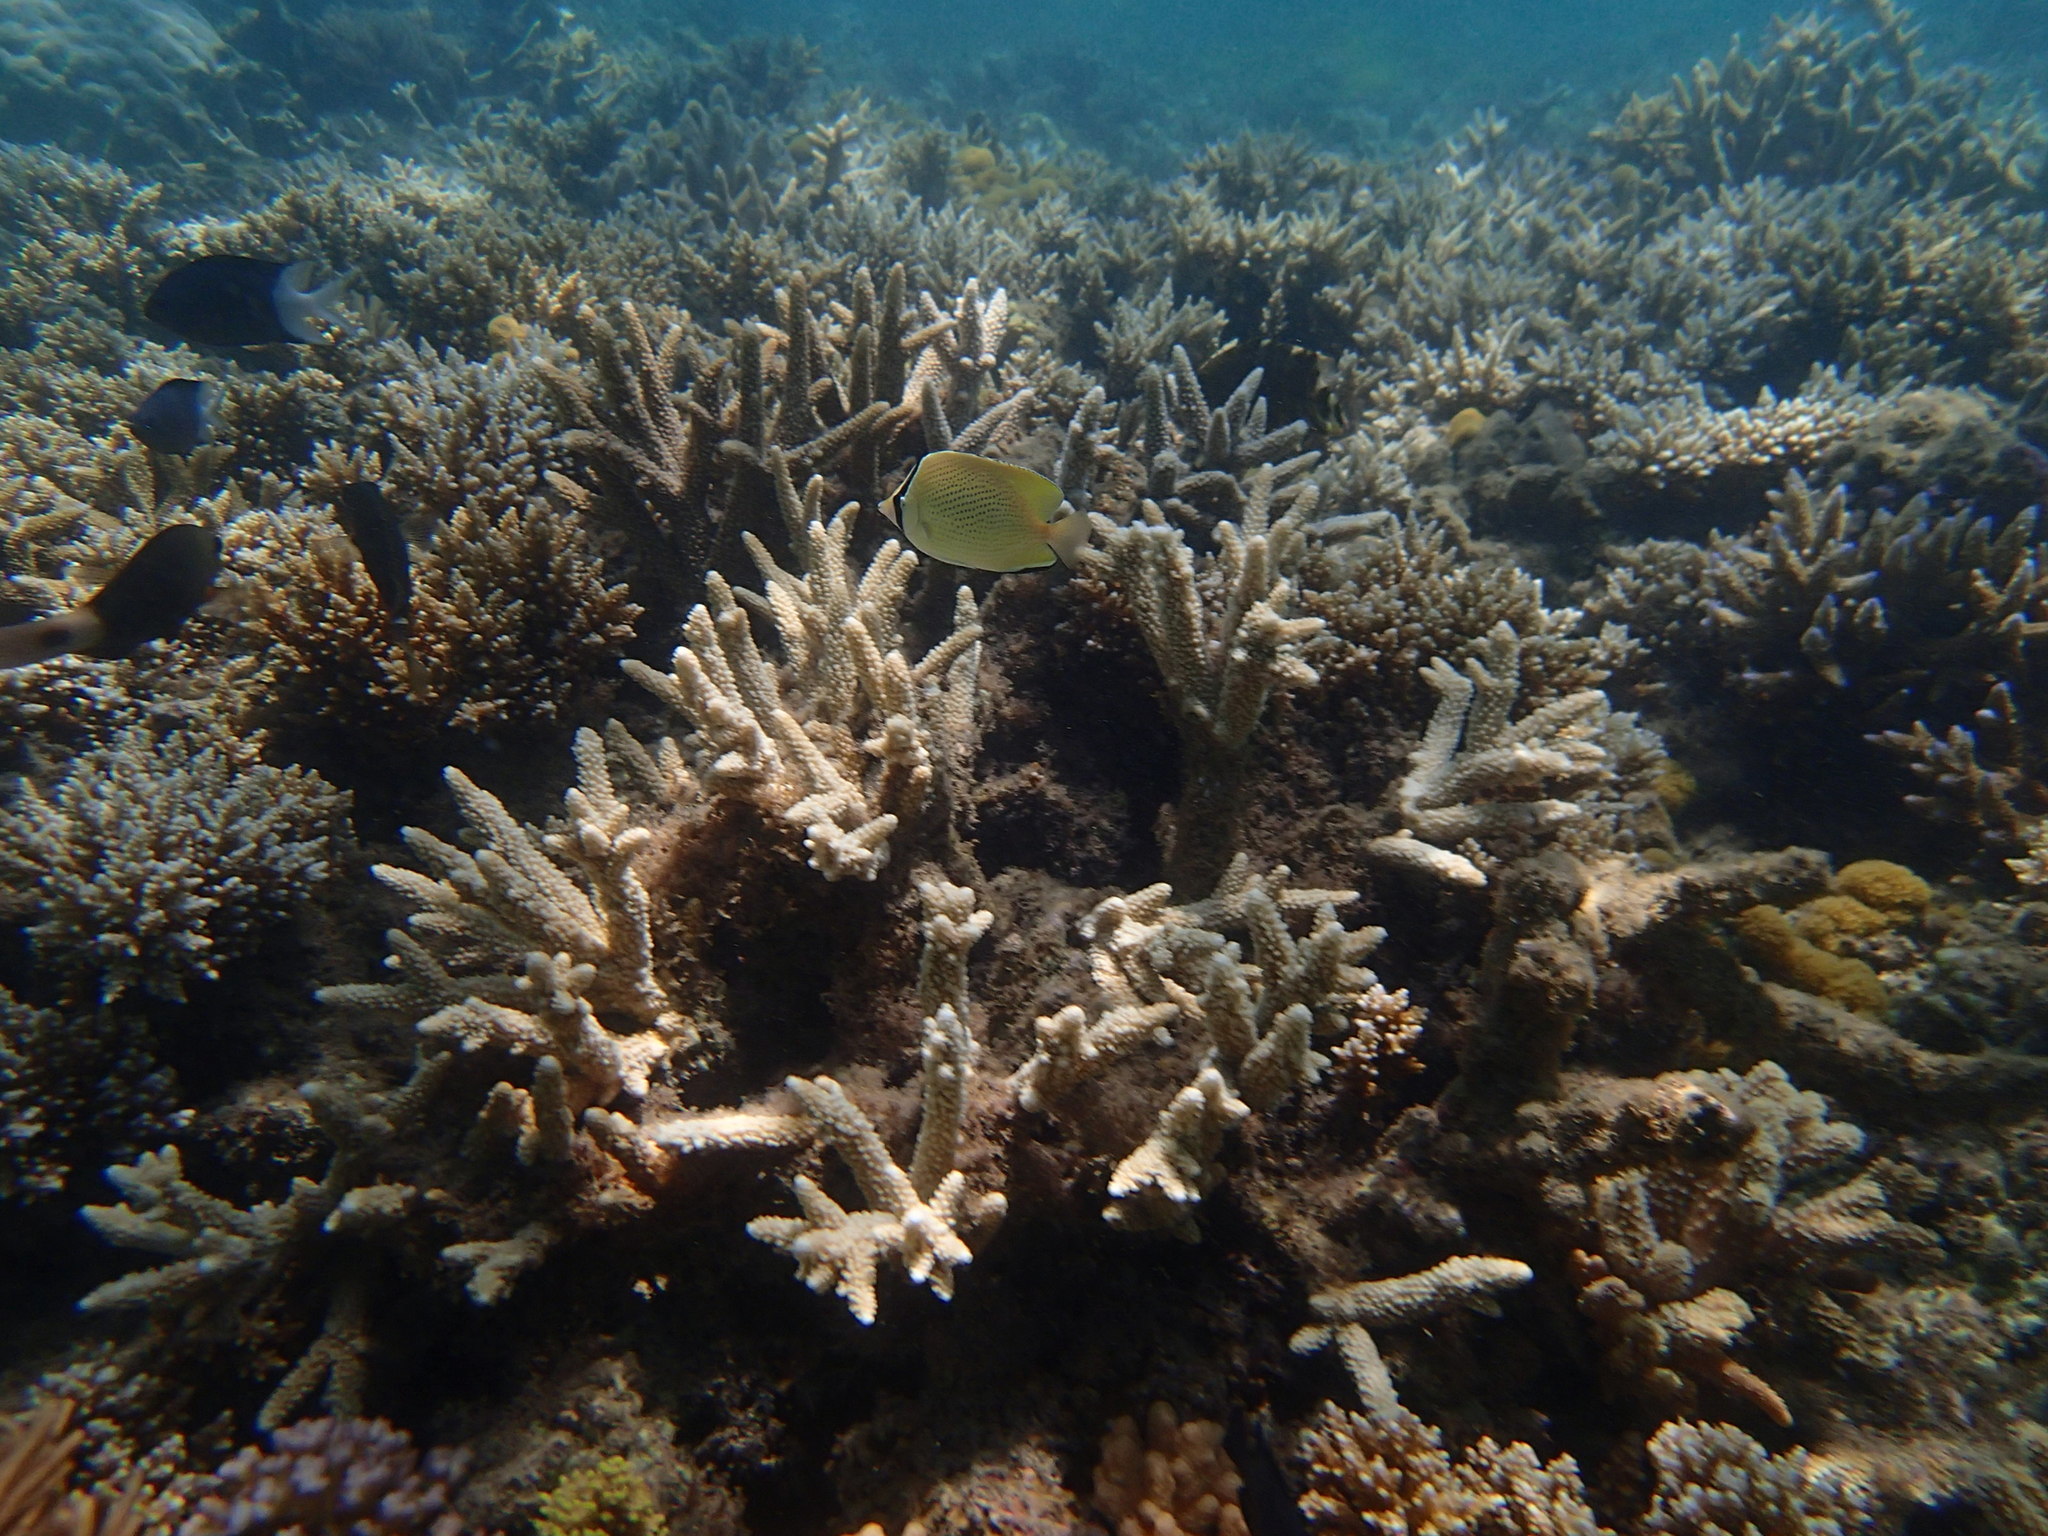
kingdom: Animalia
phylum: Chordata
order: Perciformes
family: Chaetodontidae
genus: Chaetodon
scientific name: Chaetodon citrinellus
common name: Speckled butterflyfish
